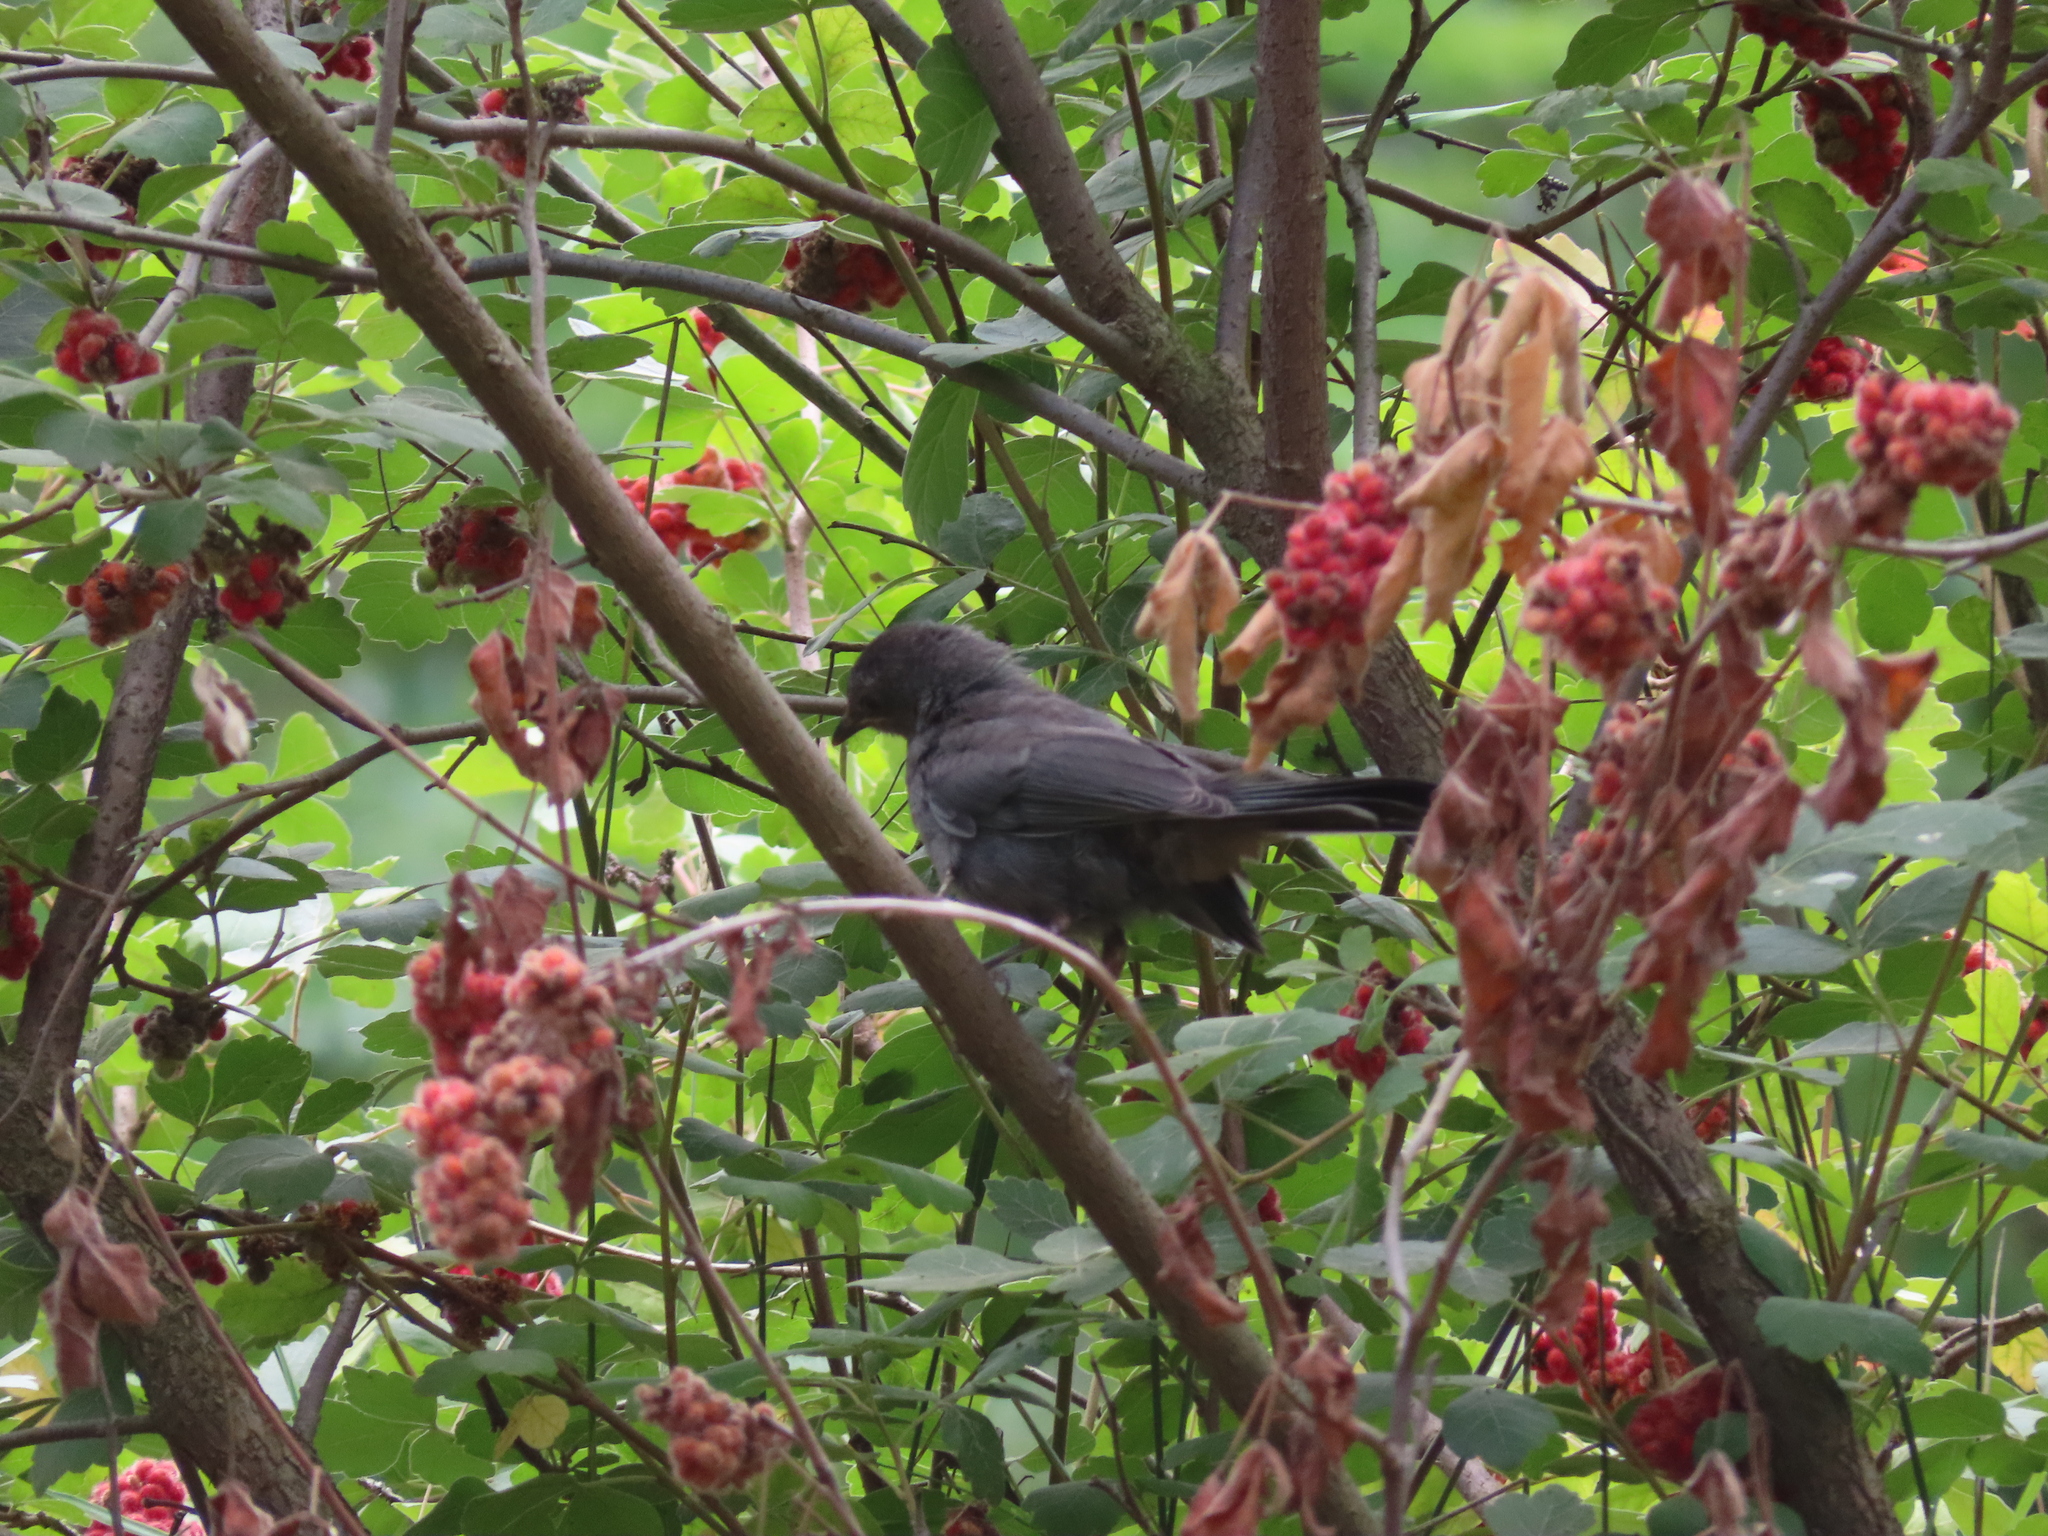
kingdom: Animalia
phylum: Chordata
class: Aves
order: Passeriformes
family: Mimidae
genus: Dumetella
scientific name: Dumetella carolinensis
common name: Gray catbird
